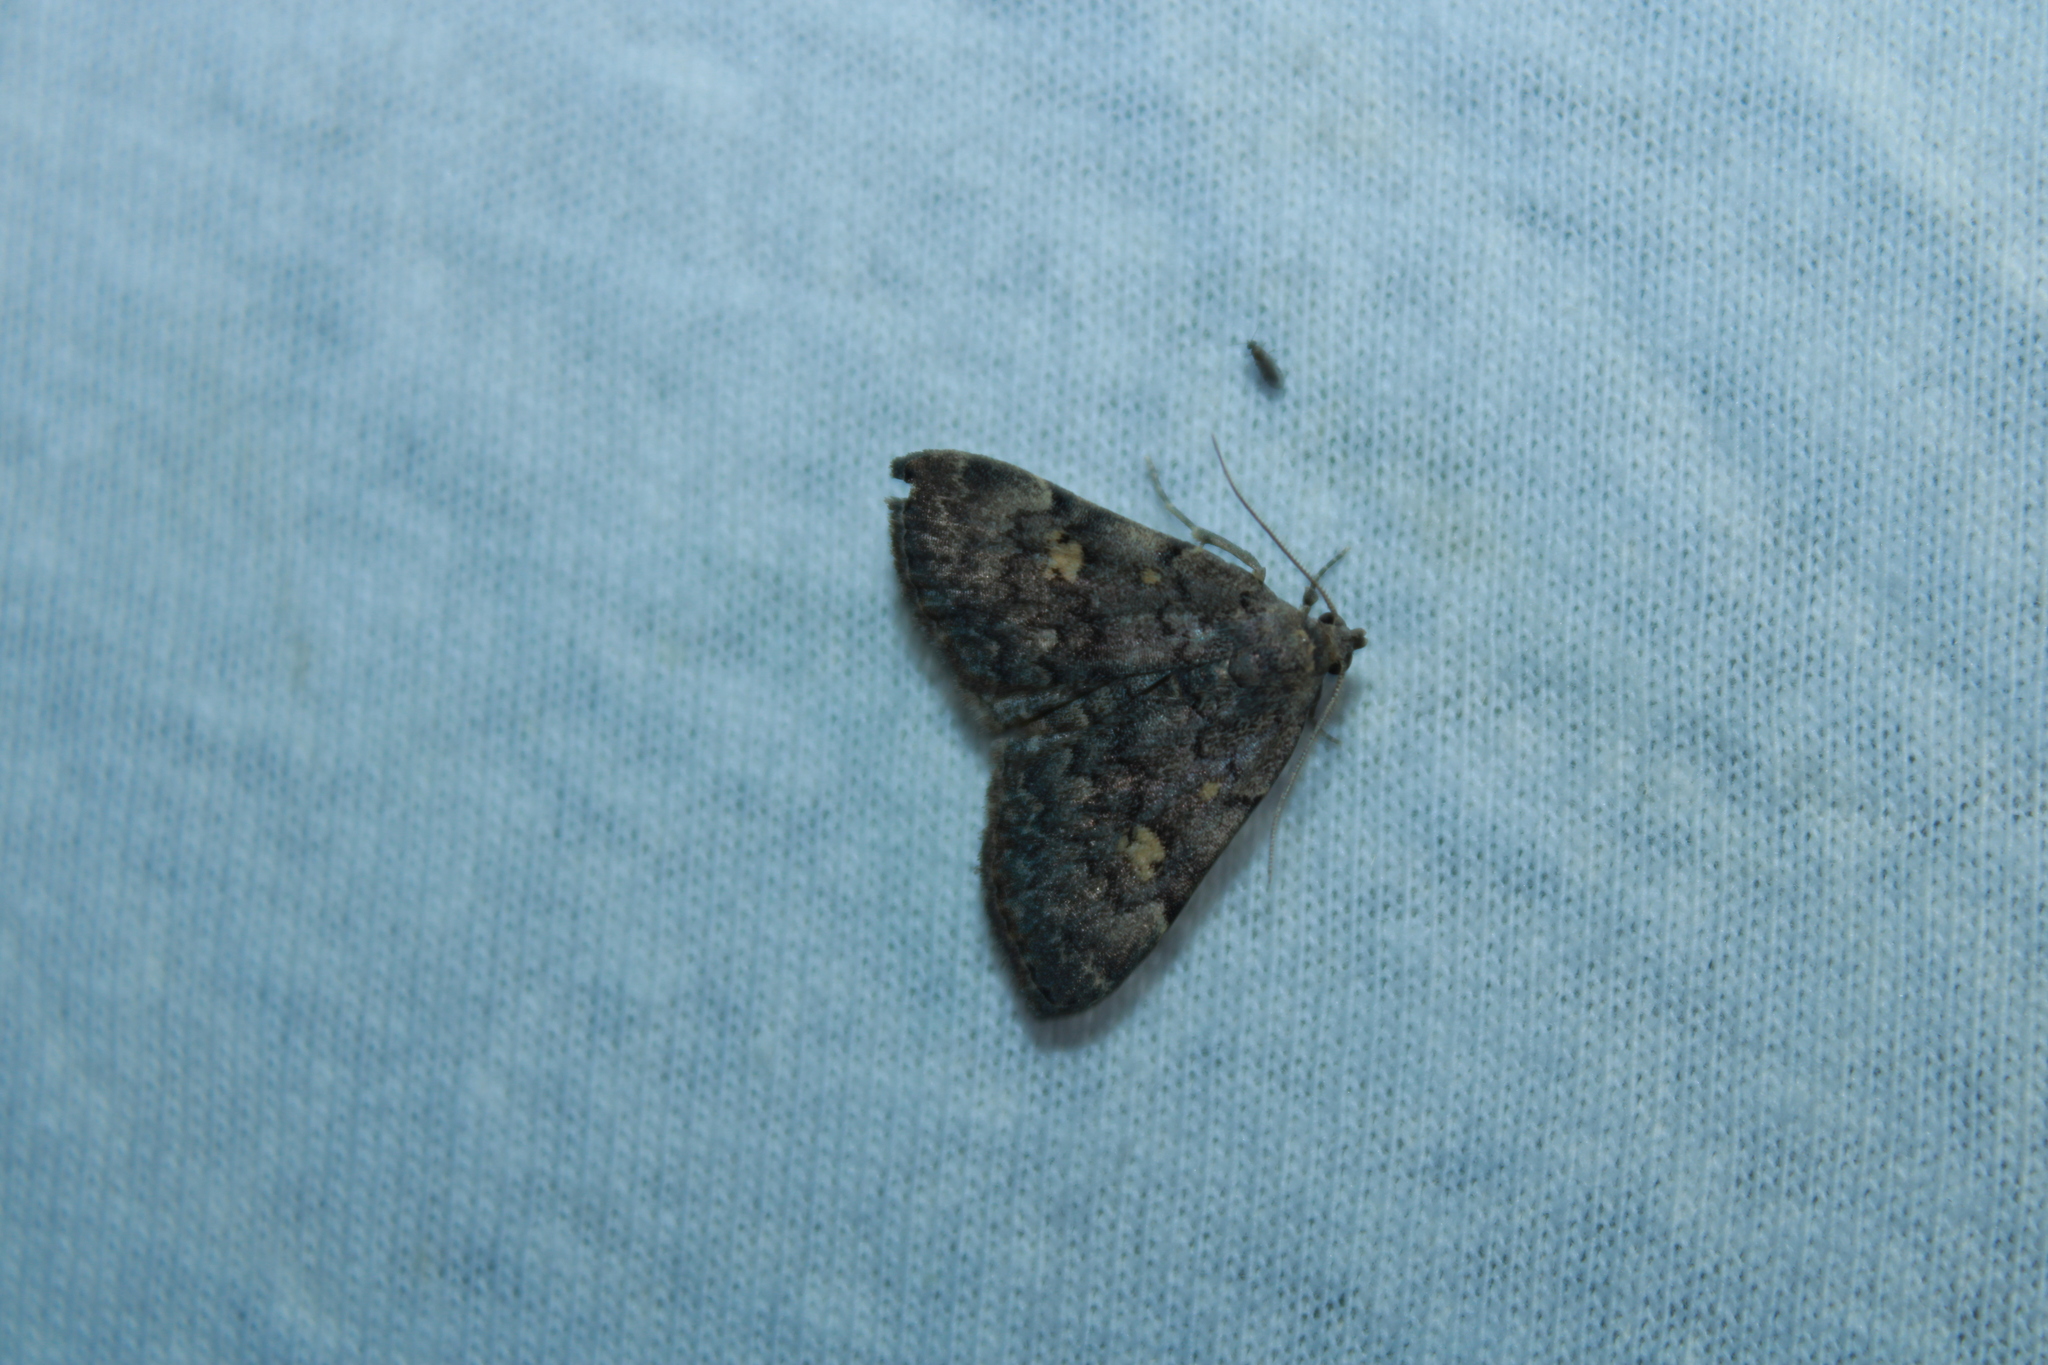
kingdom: Animalia
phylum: Arthropoda
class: Insecta
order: Lepidoptera
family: Erebidae
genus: Idia
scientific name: Idia aemula
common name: Common idia moth
